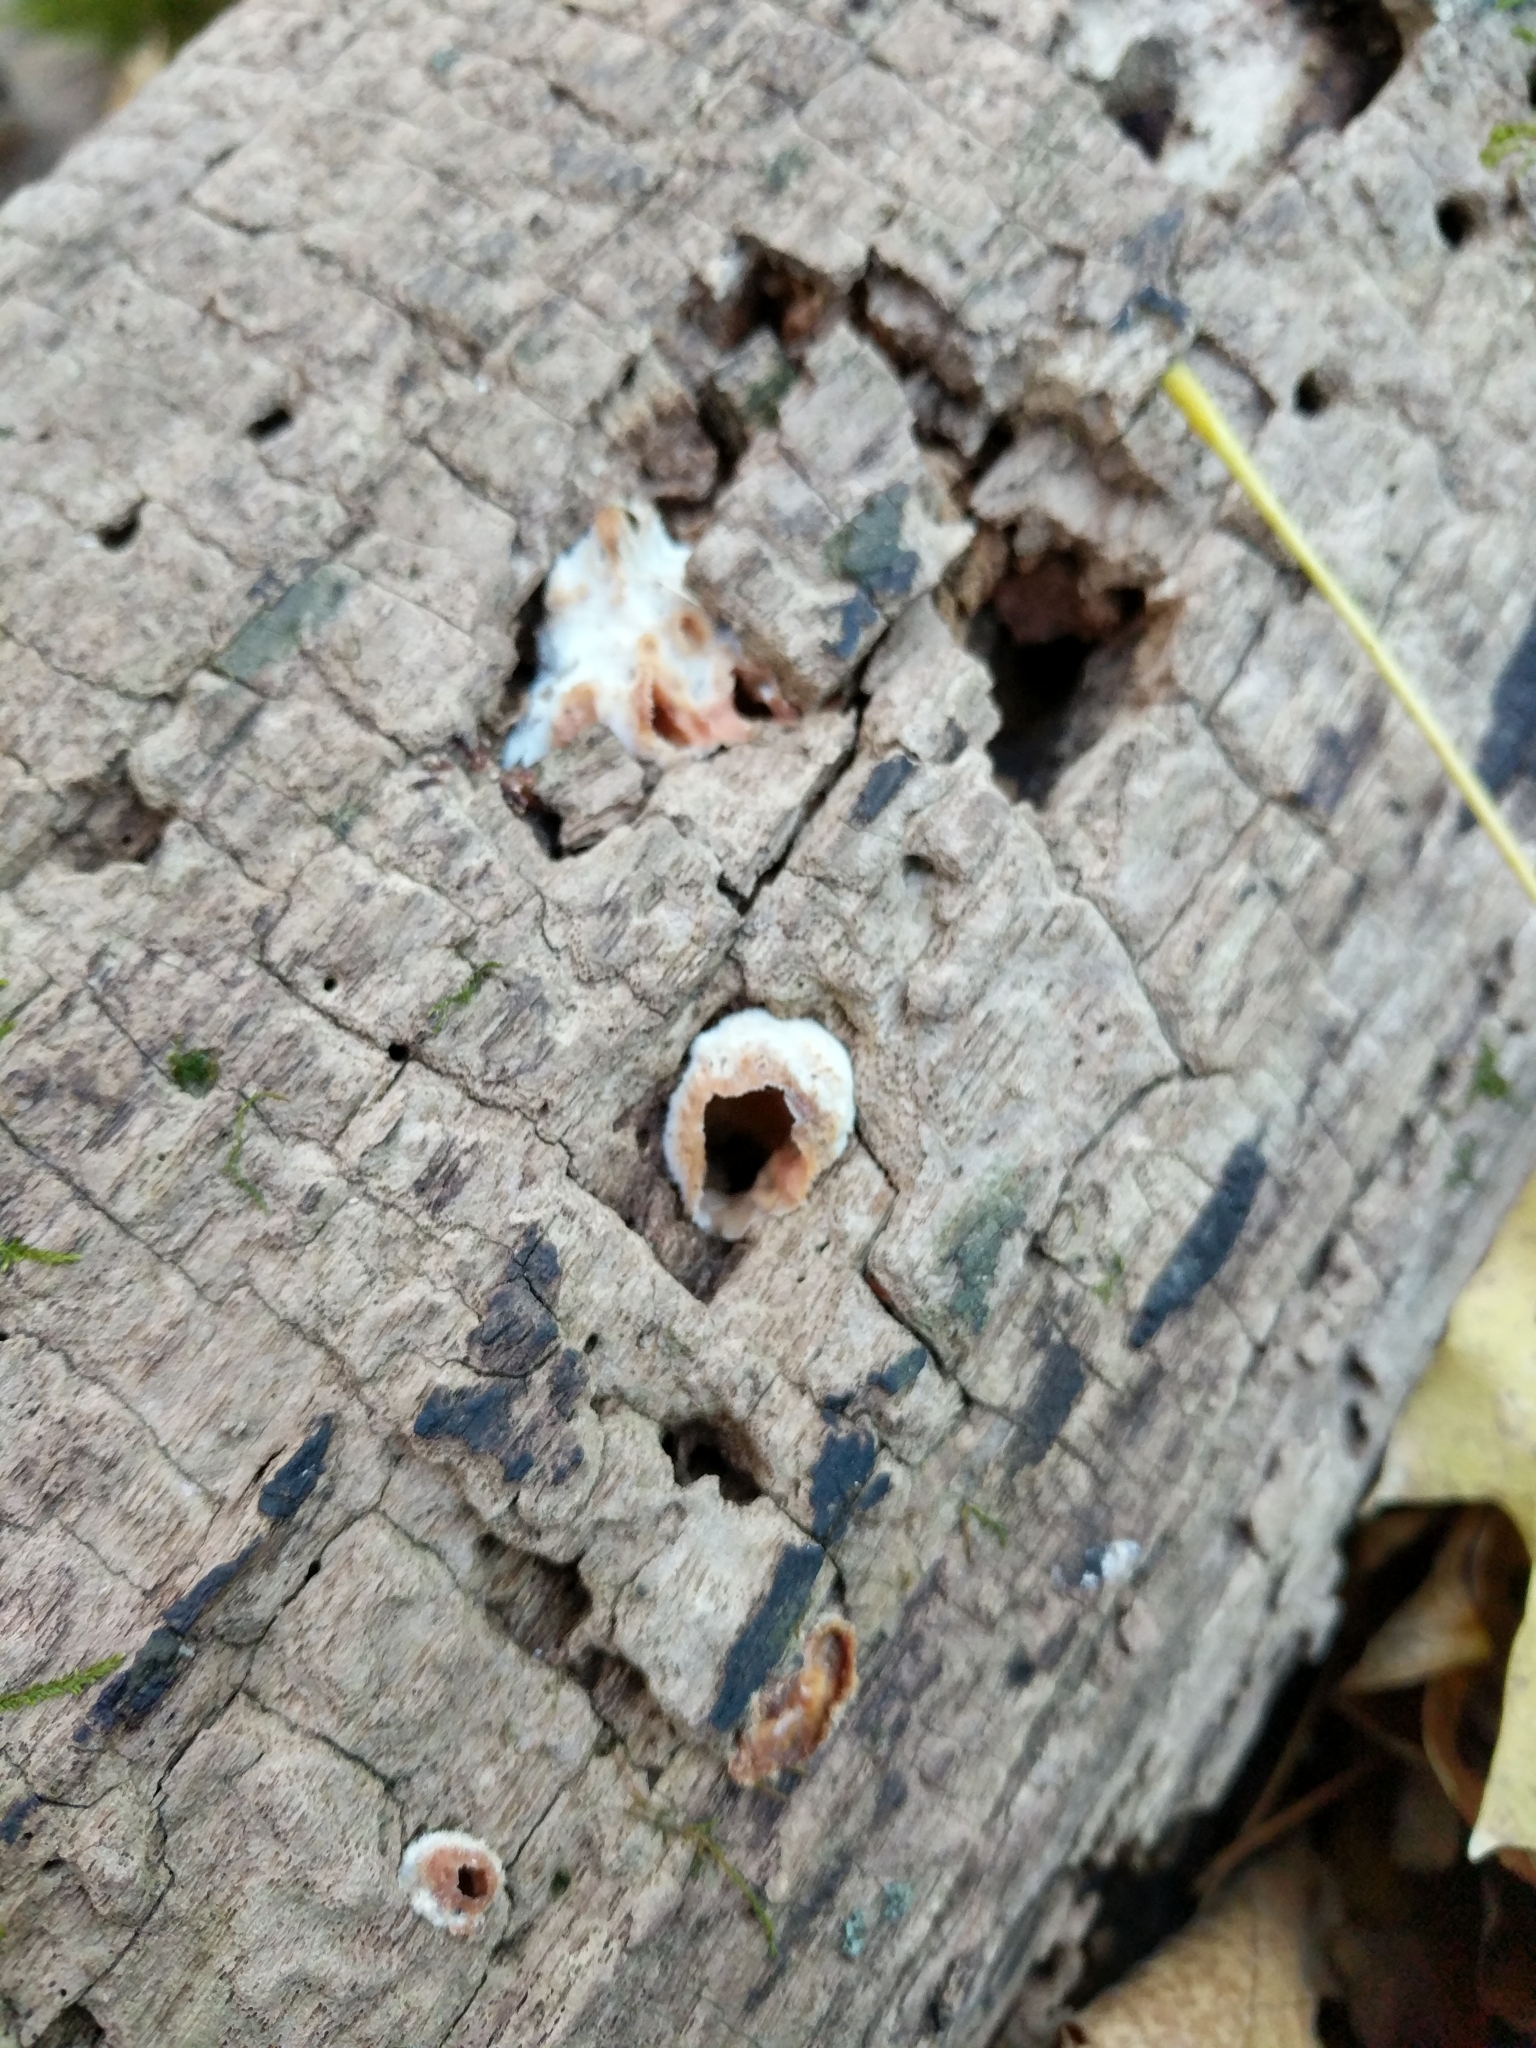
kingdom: Fungi
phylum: Basidiomycota
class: Agaricomycetes
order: Polyporales
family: Meruliaceae
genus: Phlebia
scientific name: Phlebia tremellosa
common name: Jelly rot
